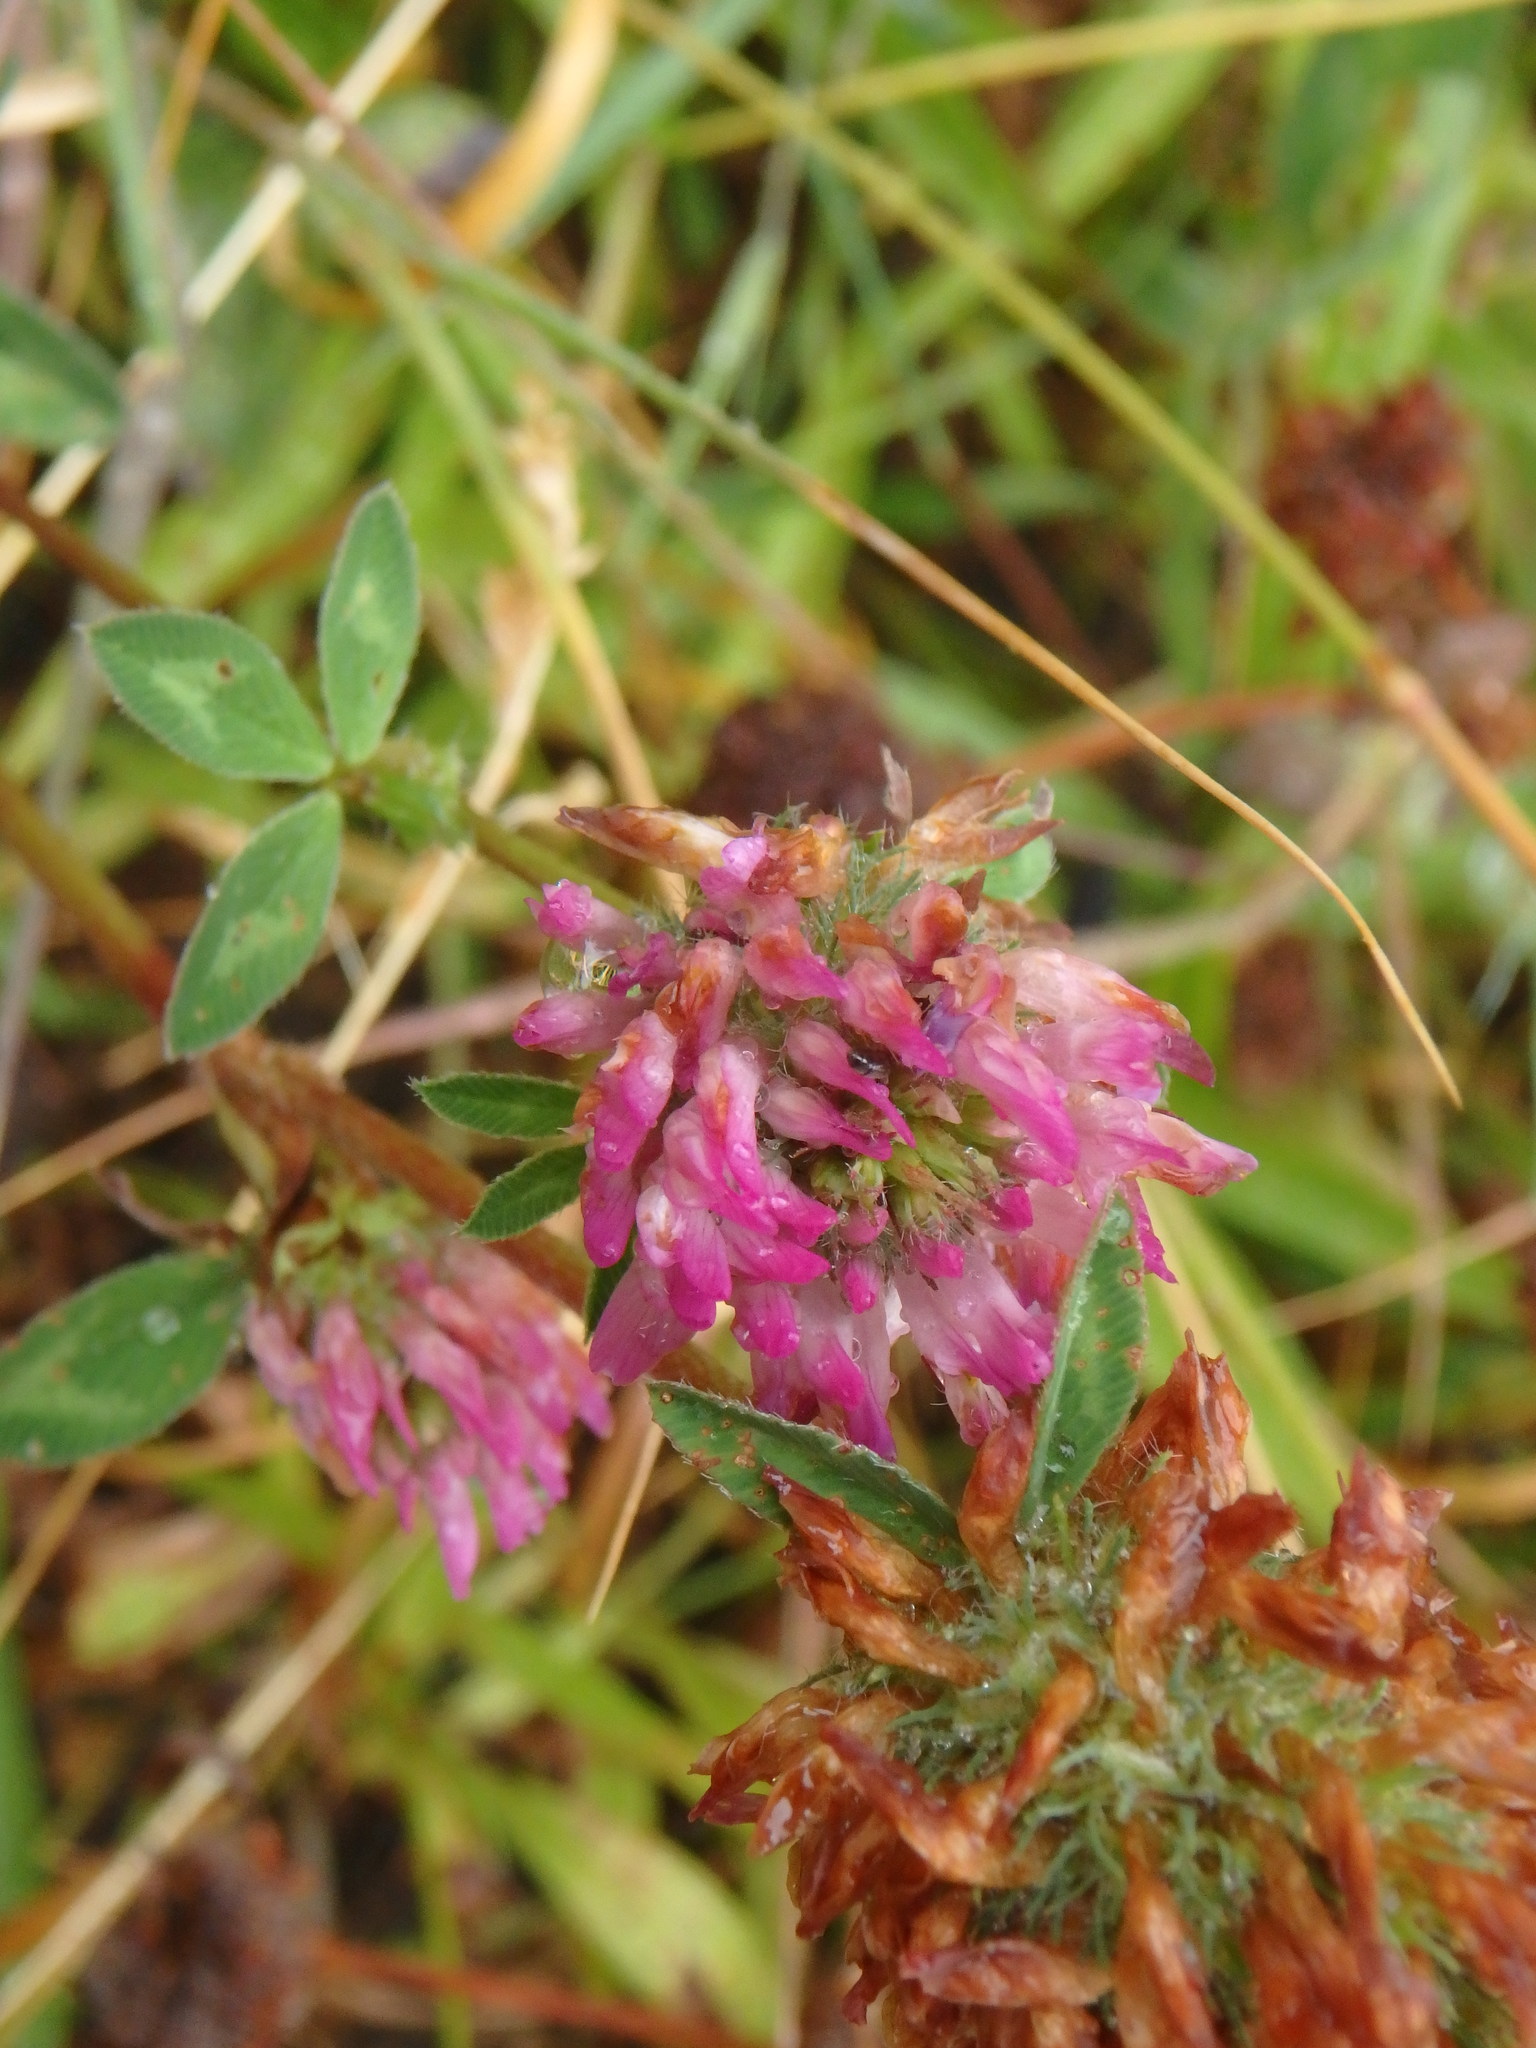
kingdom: Plantae
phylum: Tracheophyta
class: Magnoliopsida
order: Fabales
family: Fabaceae
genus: Trifolium
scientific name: Trifolium pratense
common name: Red clover
